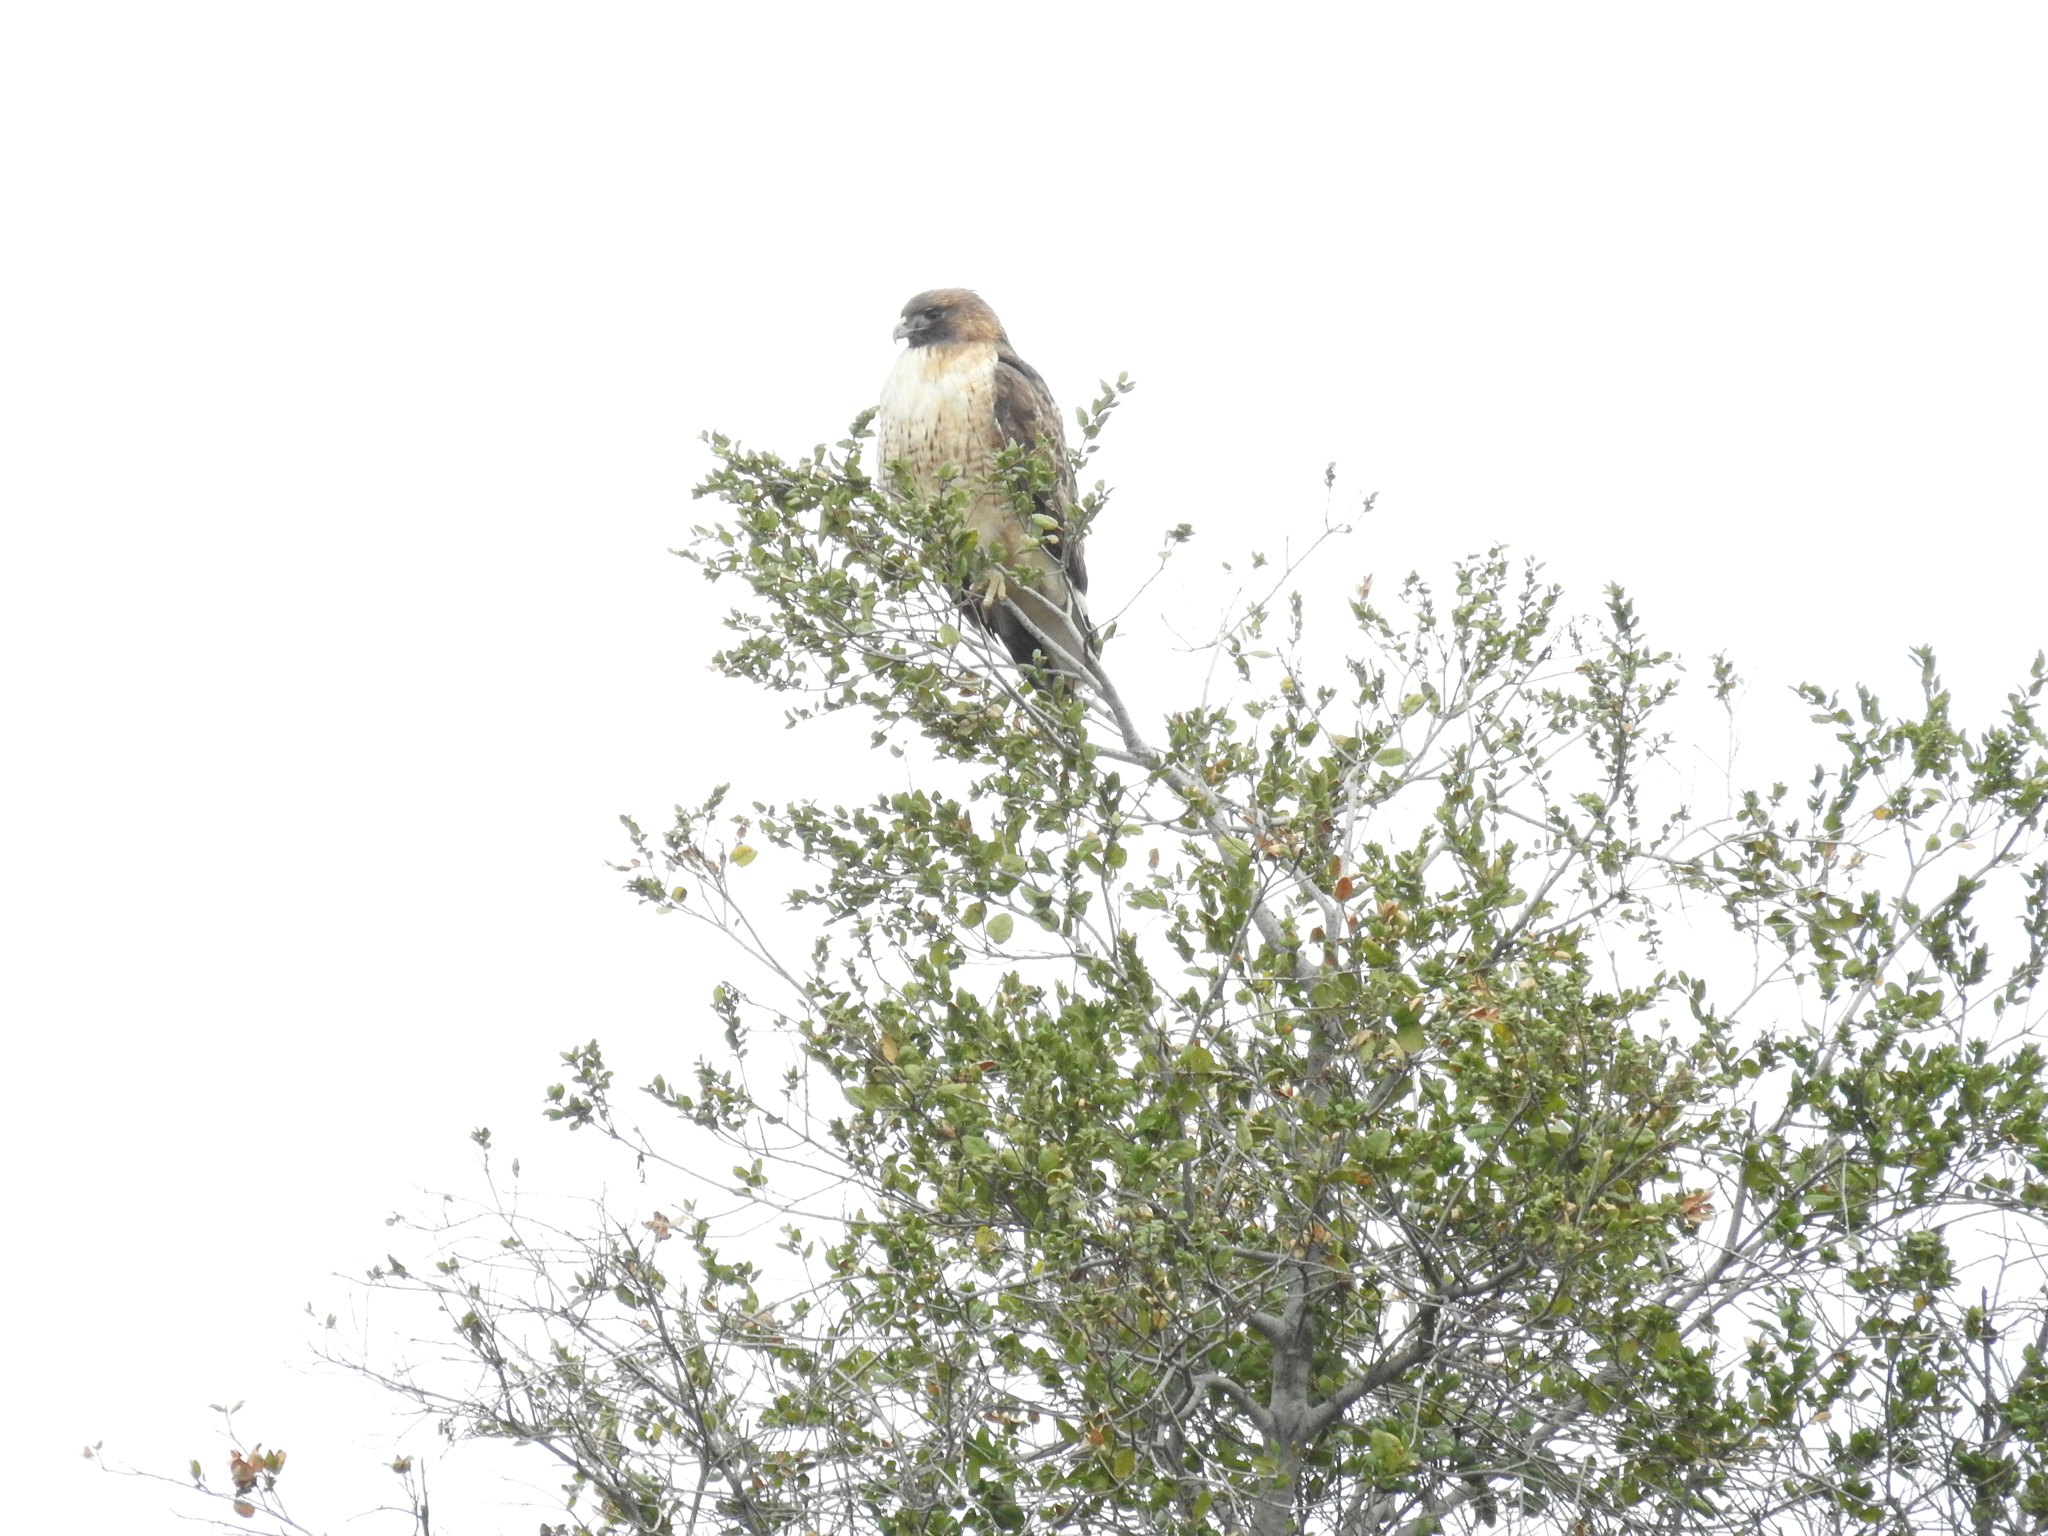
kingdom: Animalia
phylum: Chordata
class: Aves
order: Accipitriformes
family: Accipitridae
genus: Buteo
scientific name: Buteo jamaicensis
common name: Red-tailed hawk
